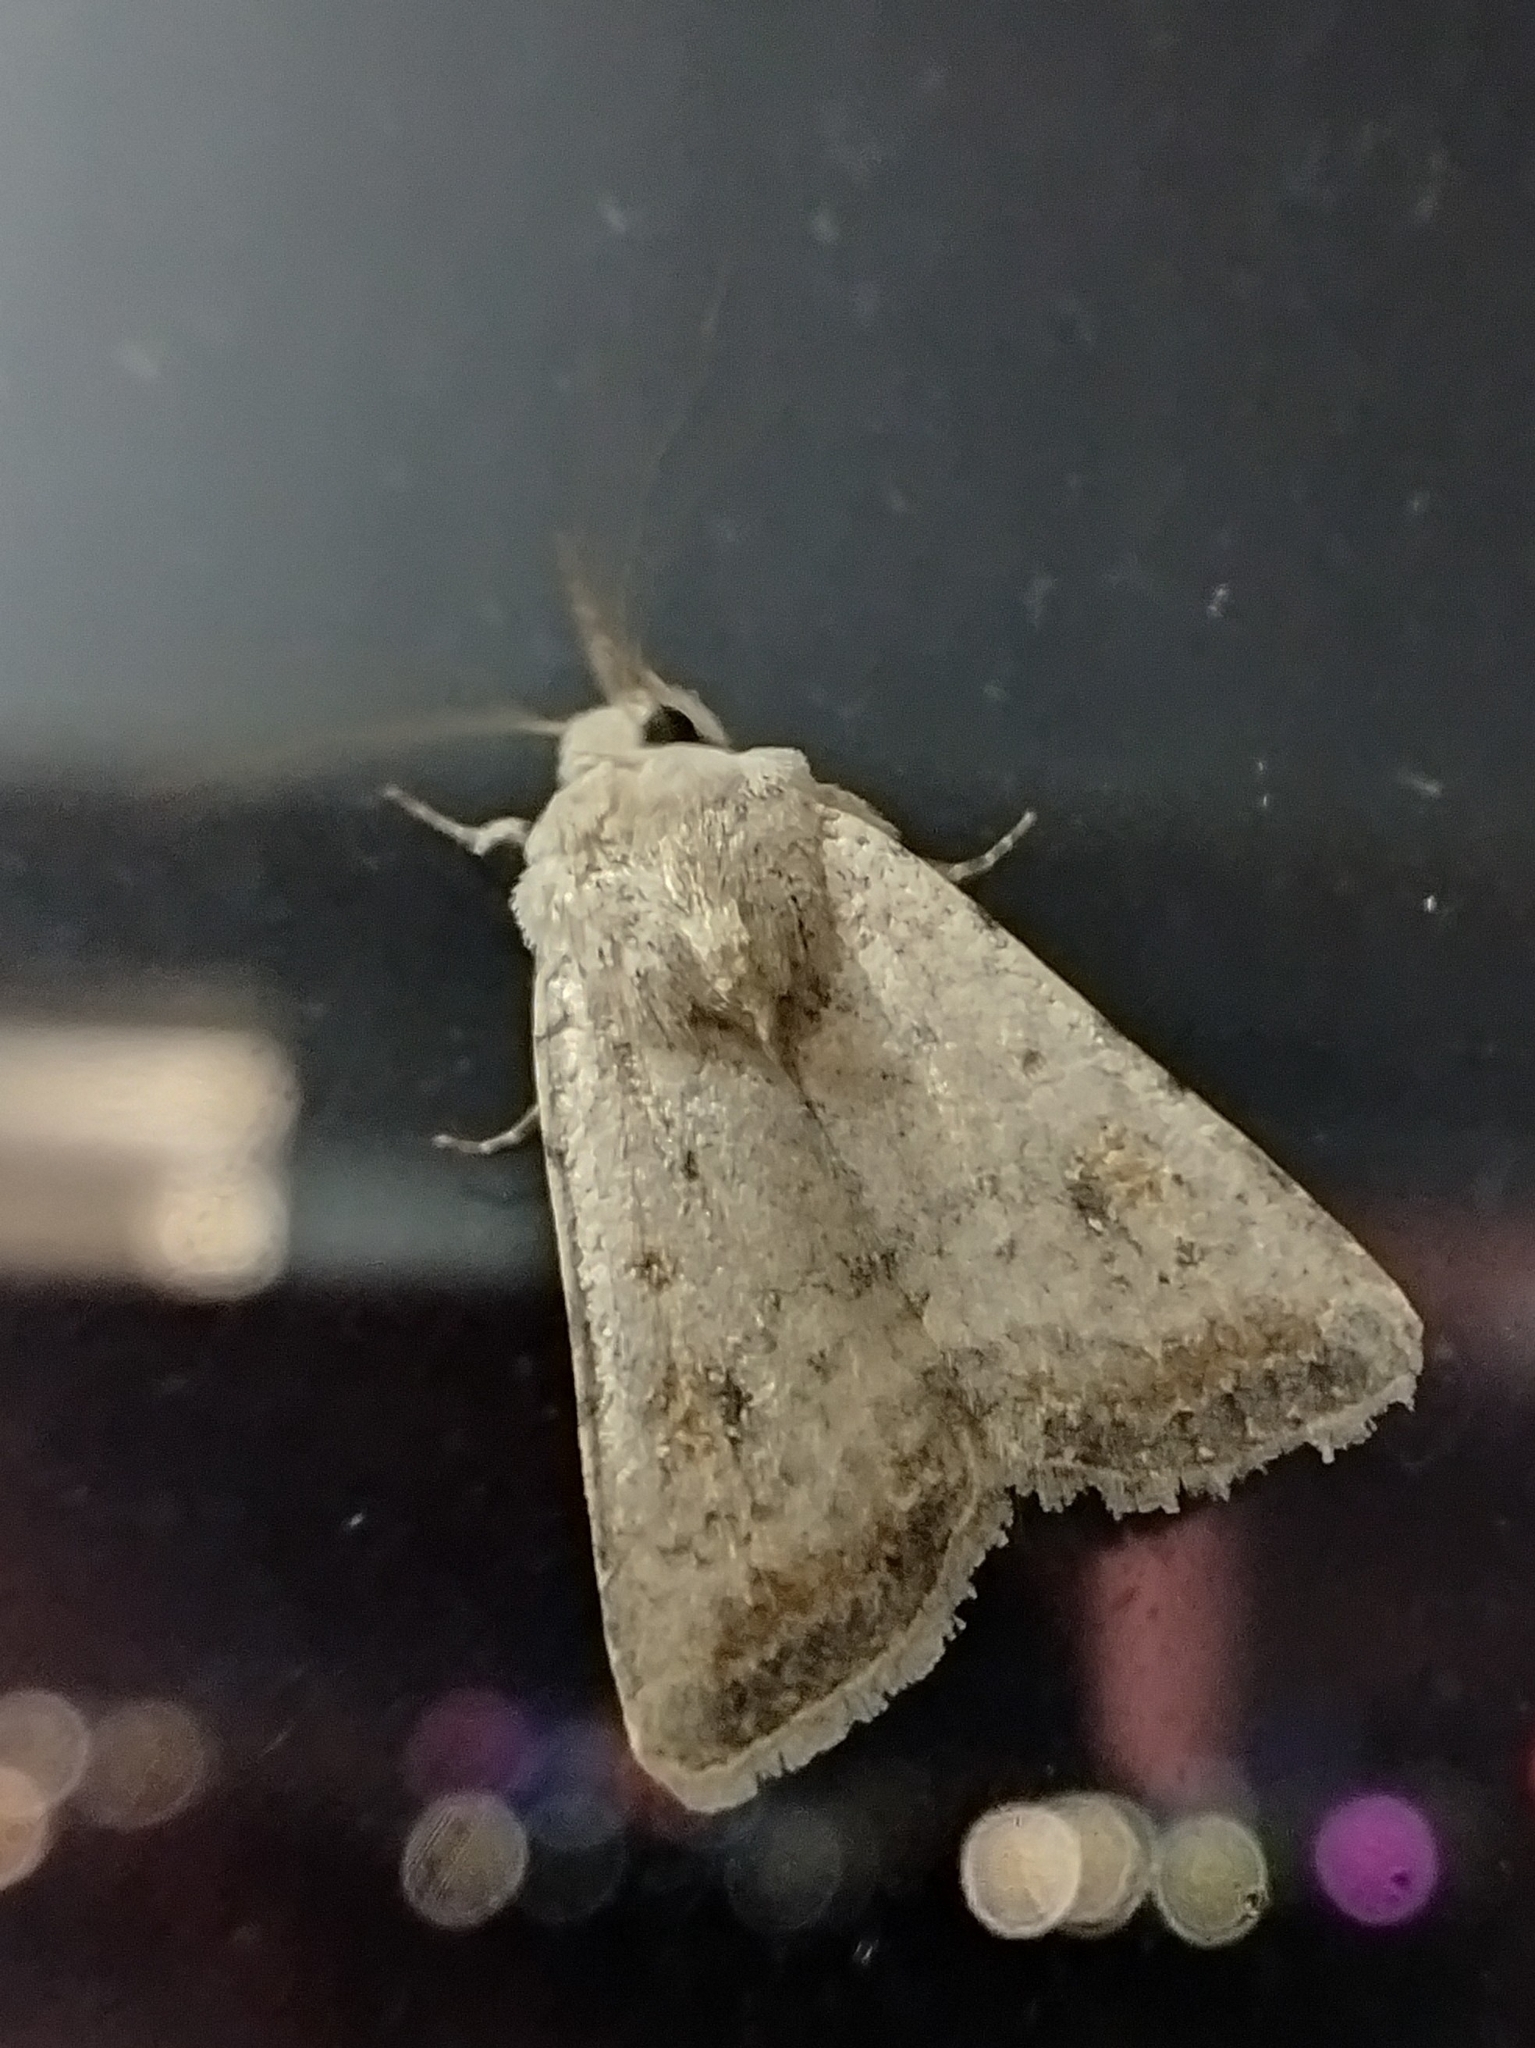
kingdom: Animalia
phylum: Arthropoda
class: Insecta
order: Lepidoptera
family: Noctuidae
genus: Caradrina
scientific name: Caradrina albina
